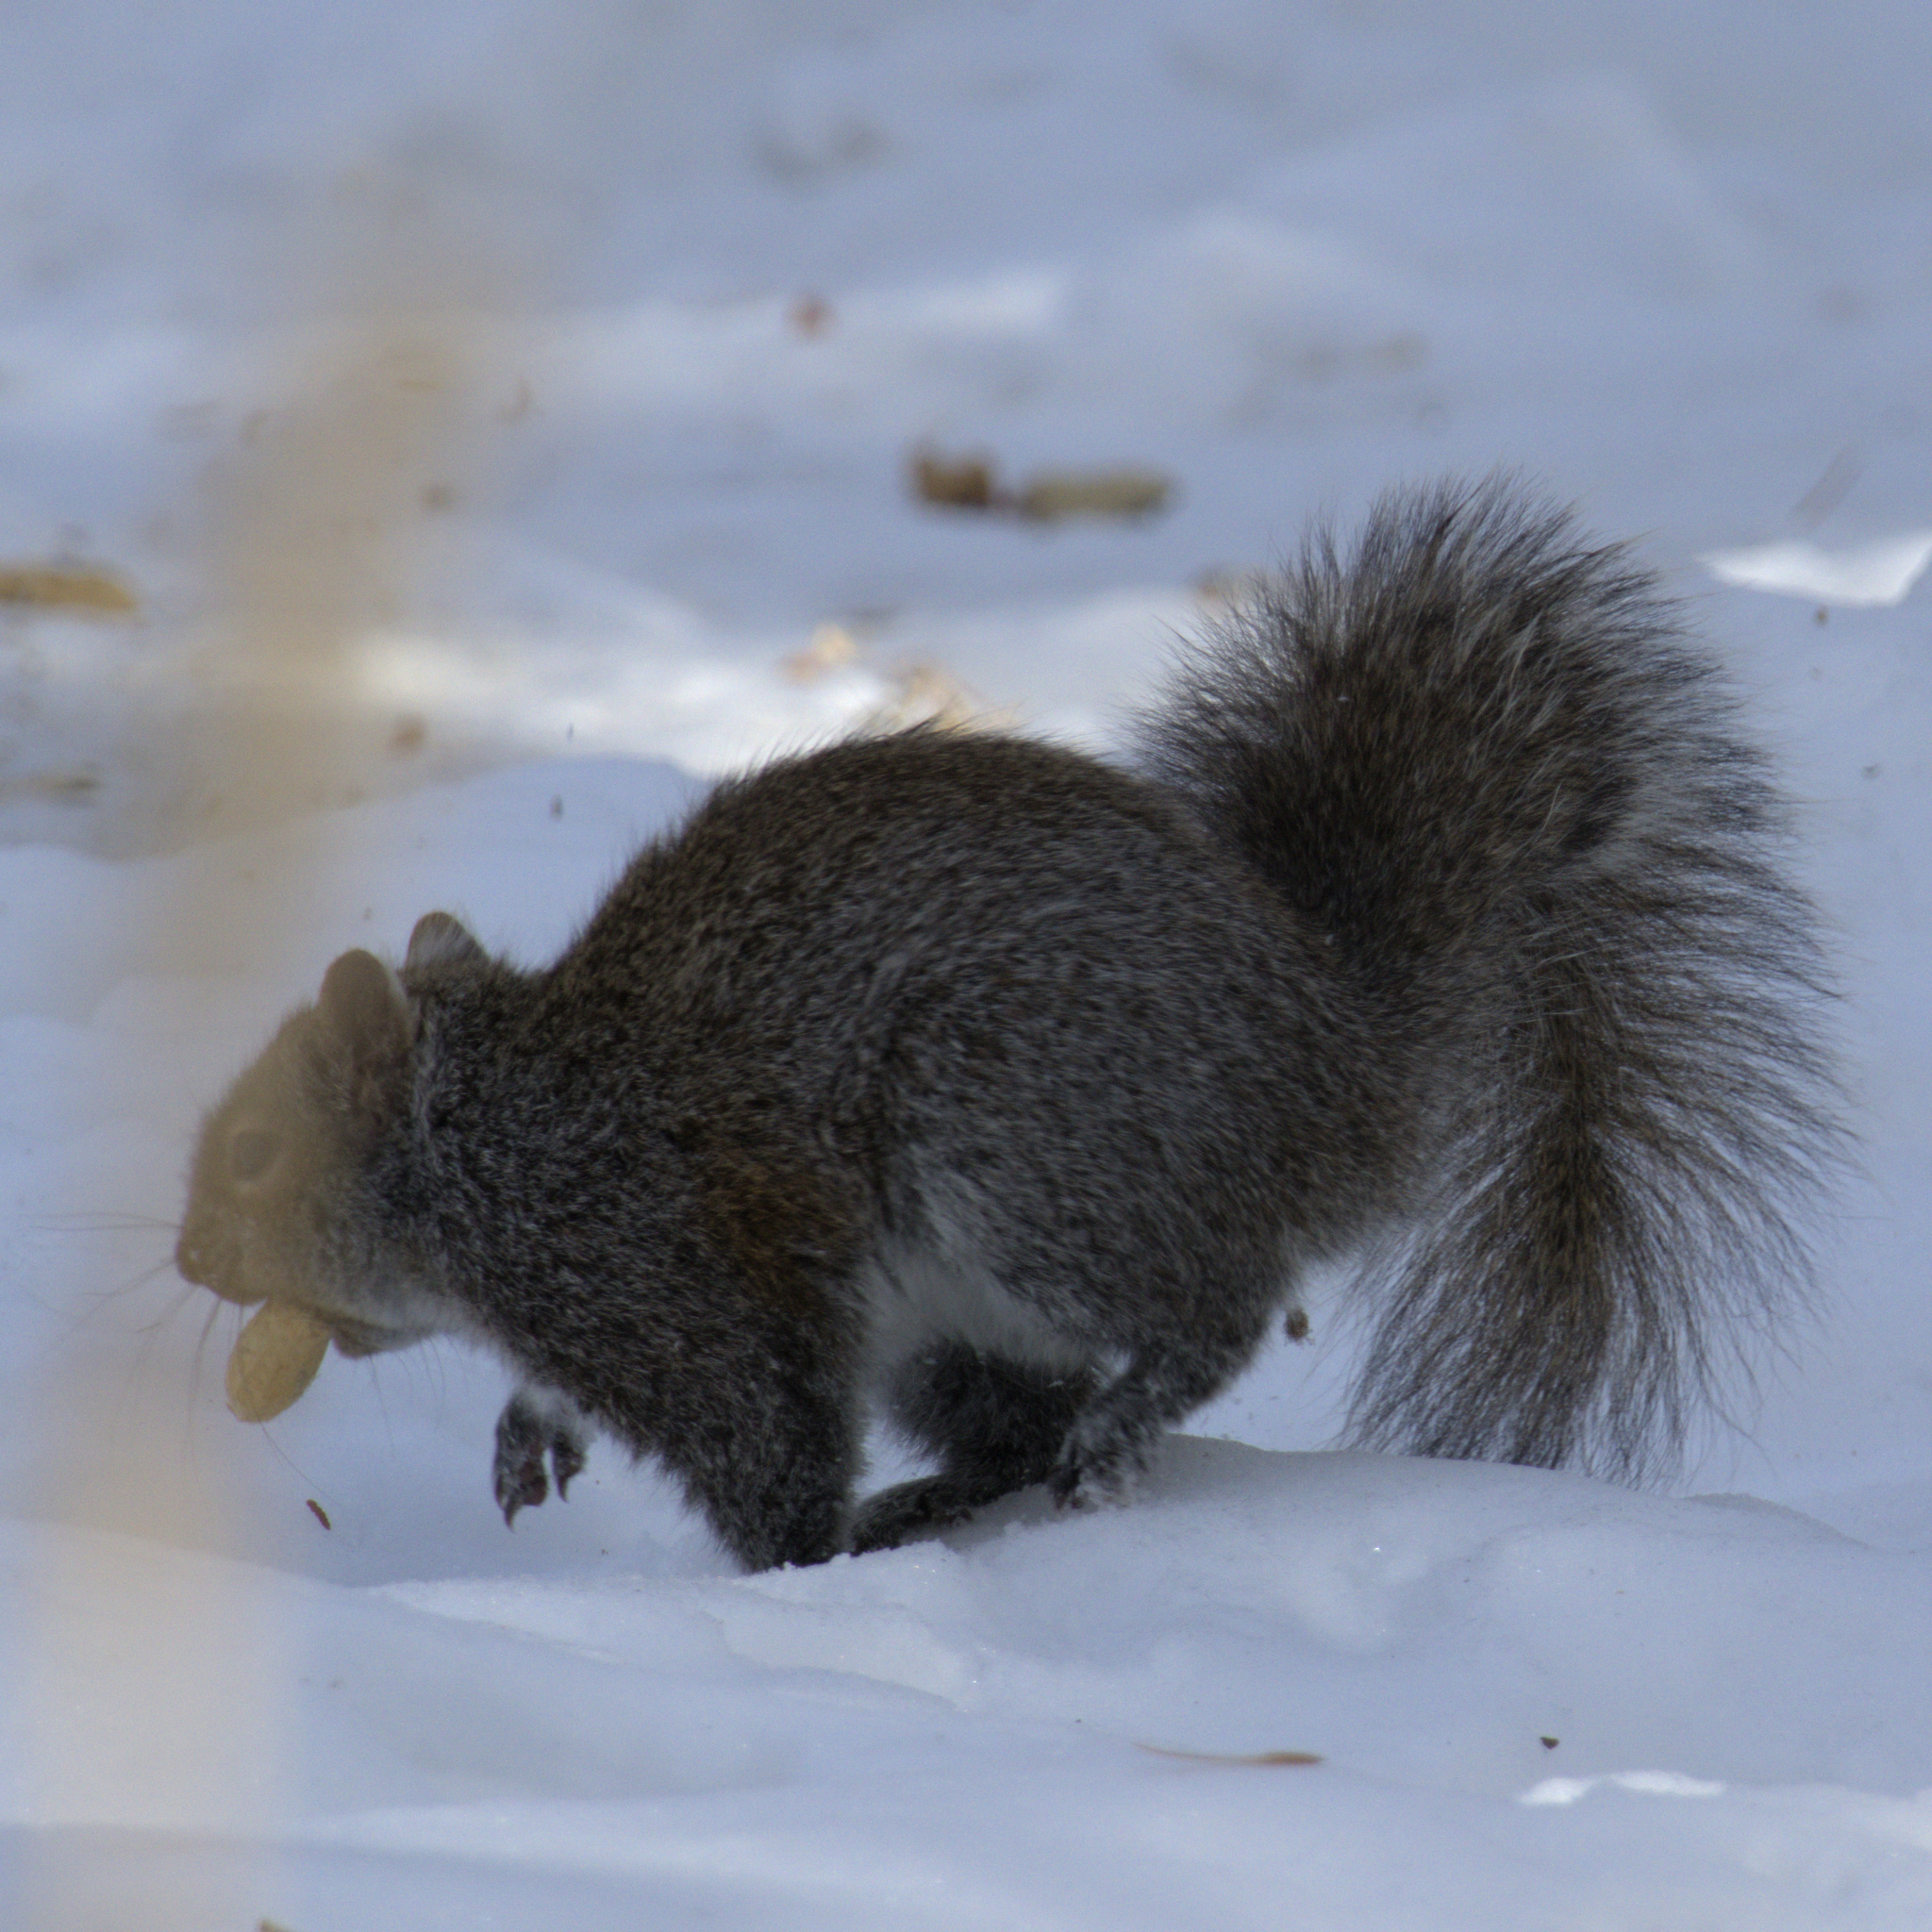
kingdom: Animalia
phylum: Chordata
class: Mammalia
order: Rodentia
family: Sciuridae
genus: Sciurus
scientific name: Sciurus carolinensis
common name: Eastern gray squirrel
